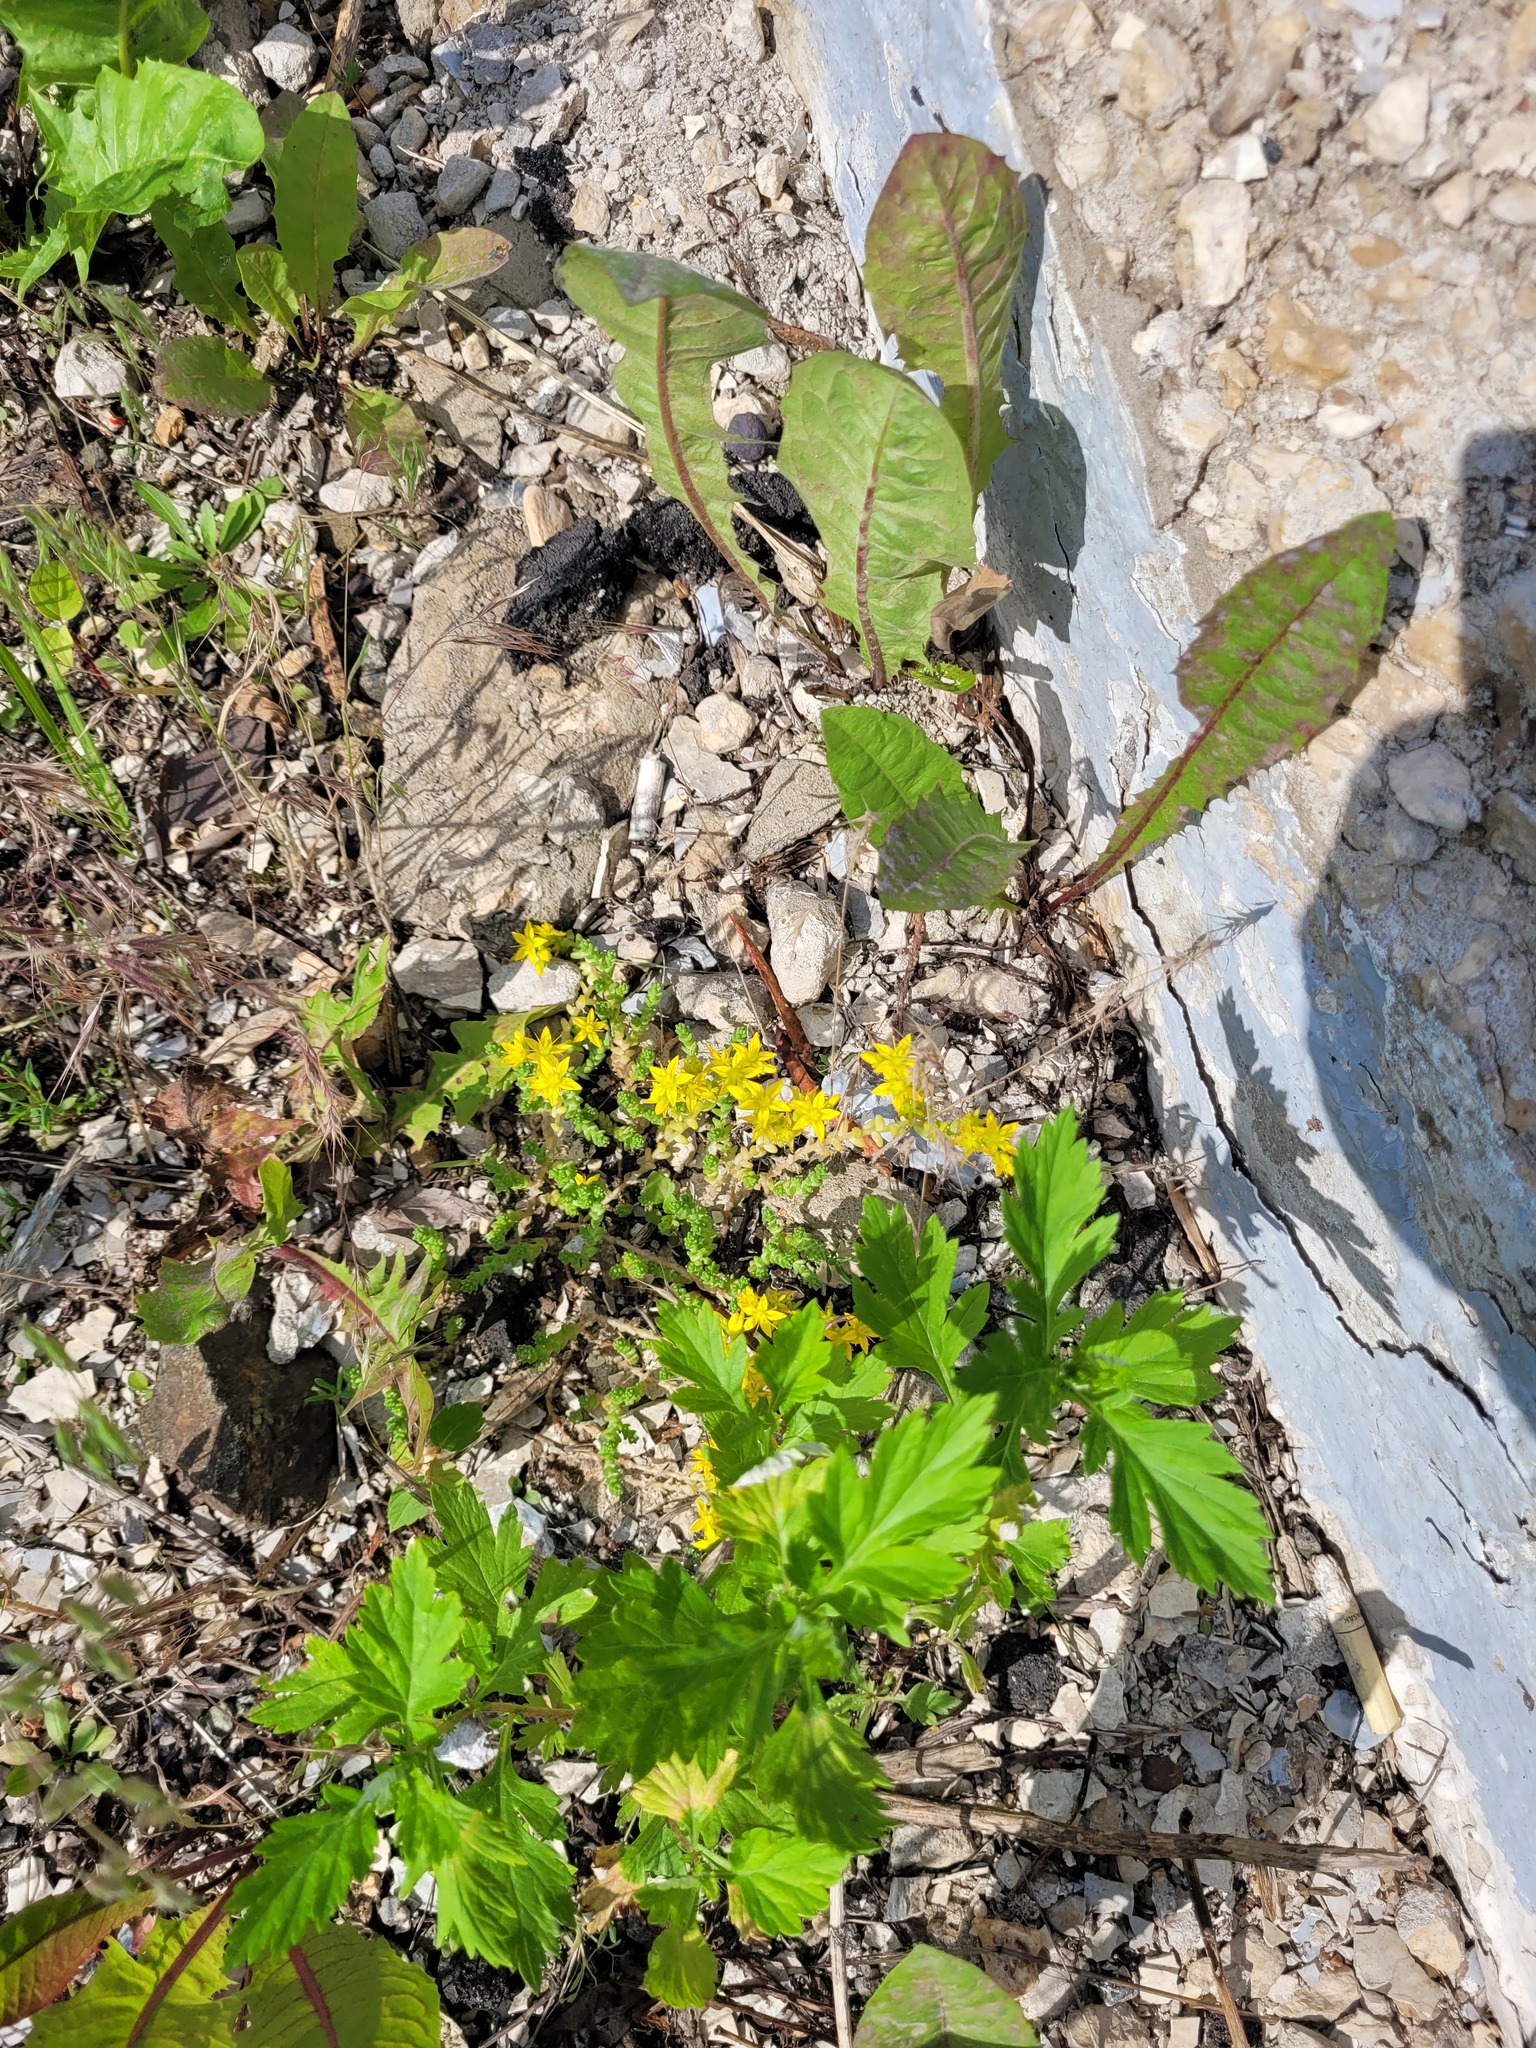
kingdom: Plantae
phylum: Tracheophyta
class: Magnoliopsida
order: Saxifragales
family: Crassulaceae
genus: Sedum
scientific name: Sedum acre
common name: Biting stonecrop
